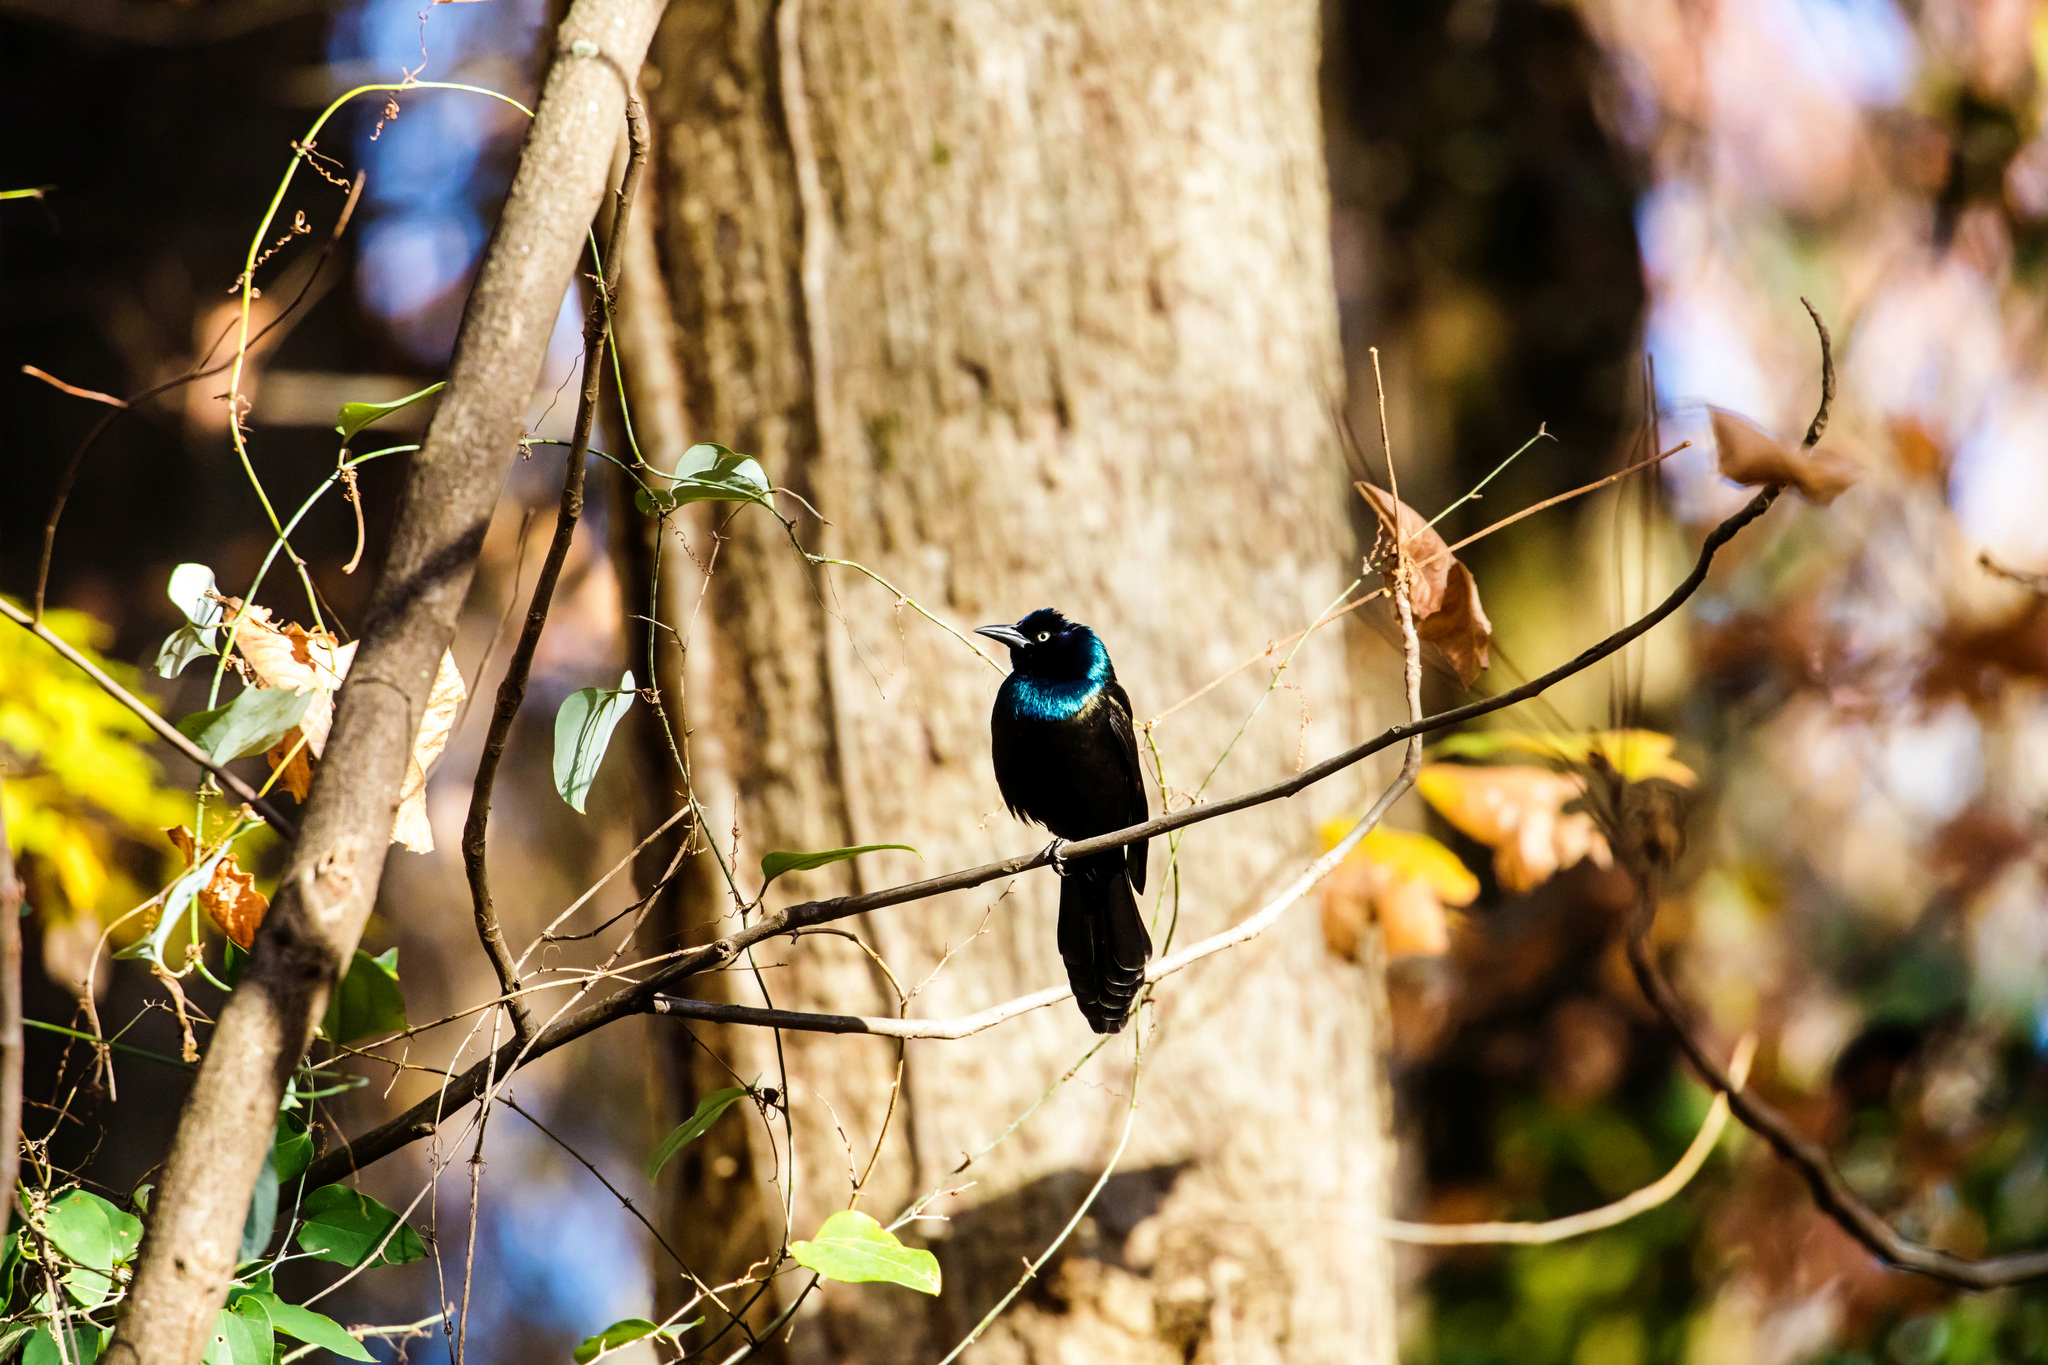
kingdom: Animalia
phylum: Chordata
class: Aves
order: Passeriformes
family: Icteridae
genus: Quiscalus
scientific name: Quiscalus quiscula
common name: Common grackle
